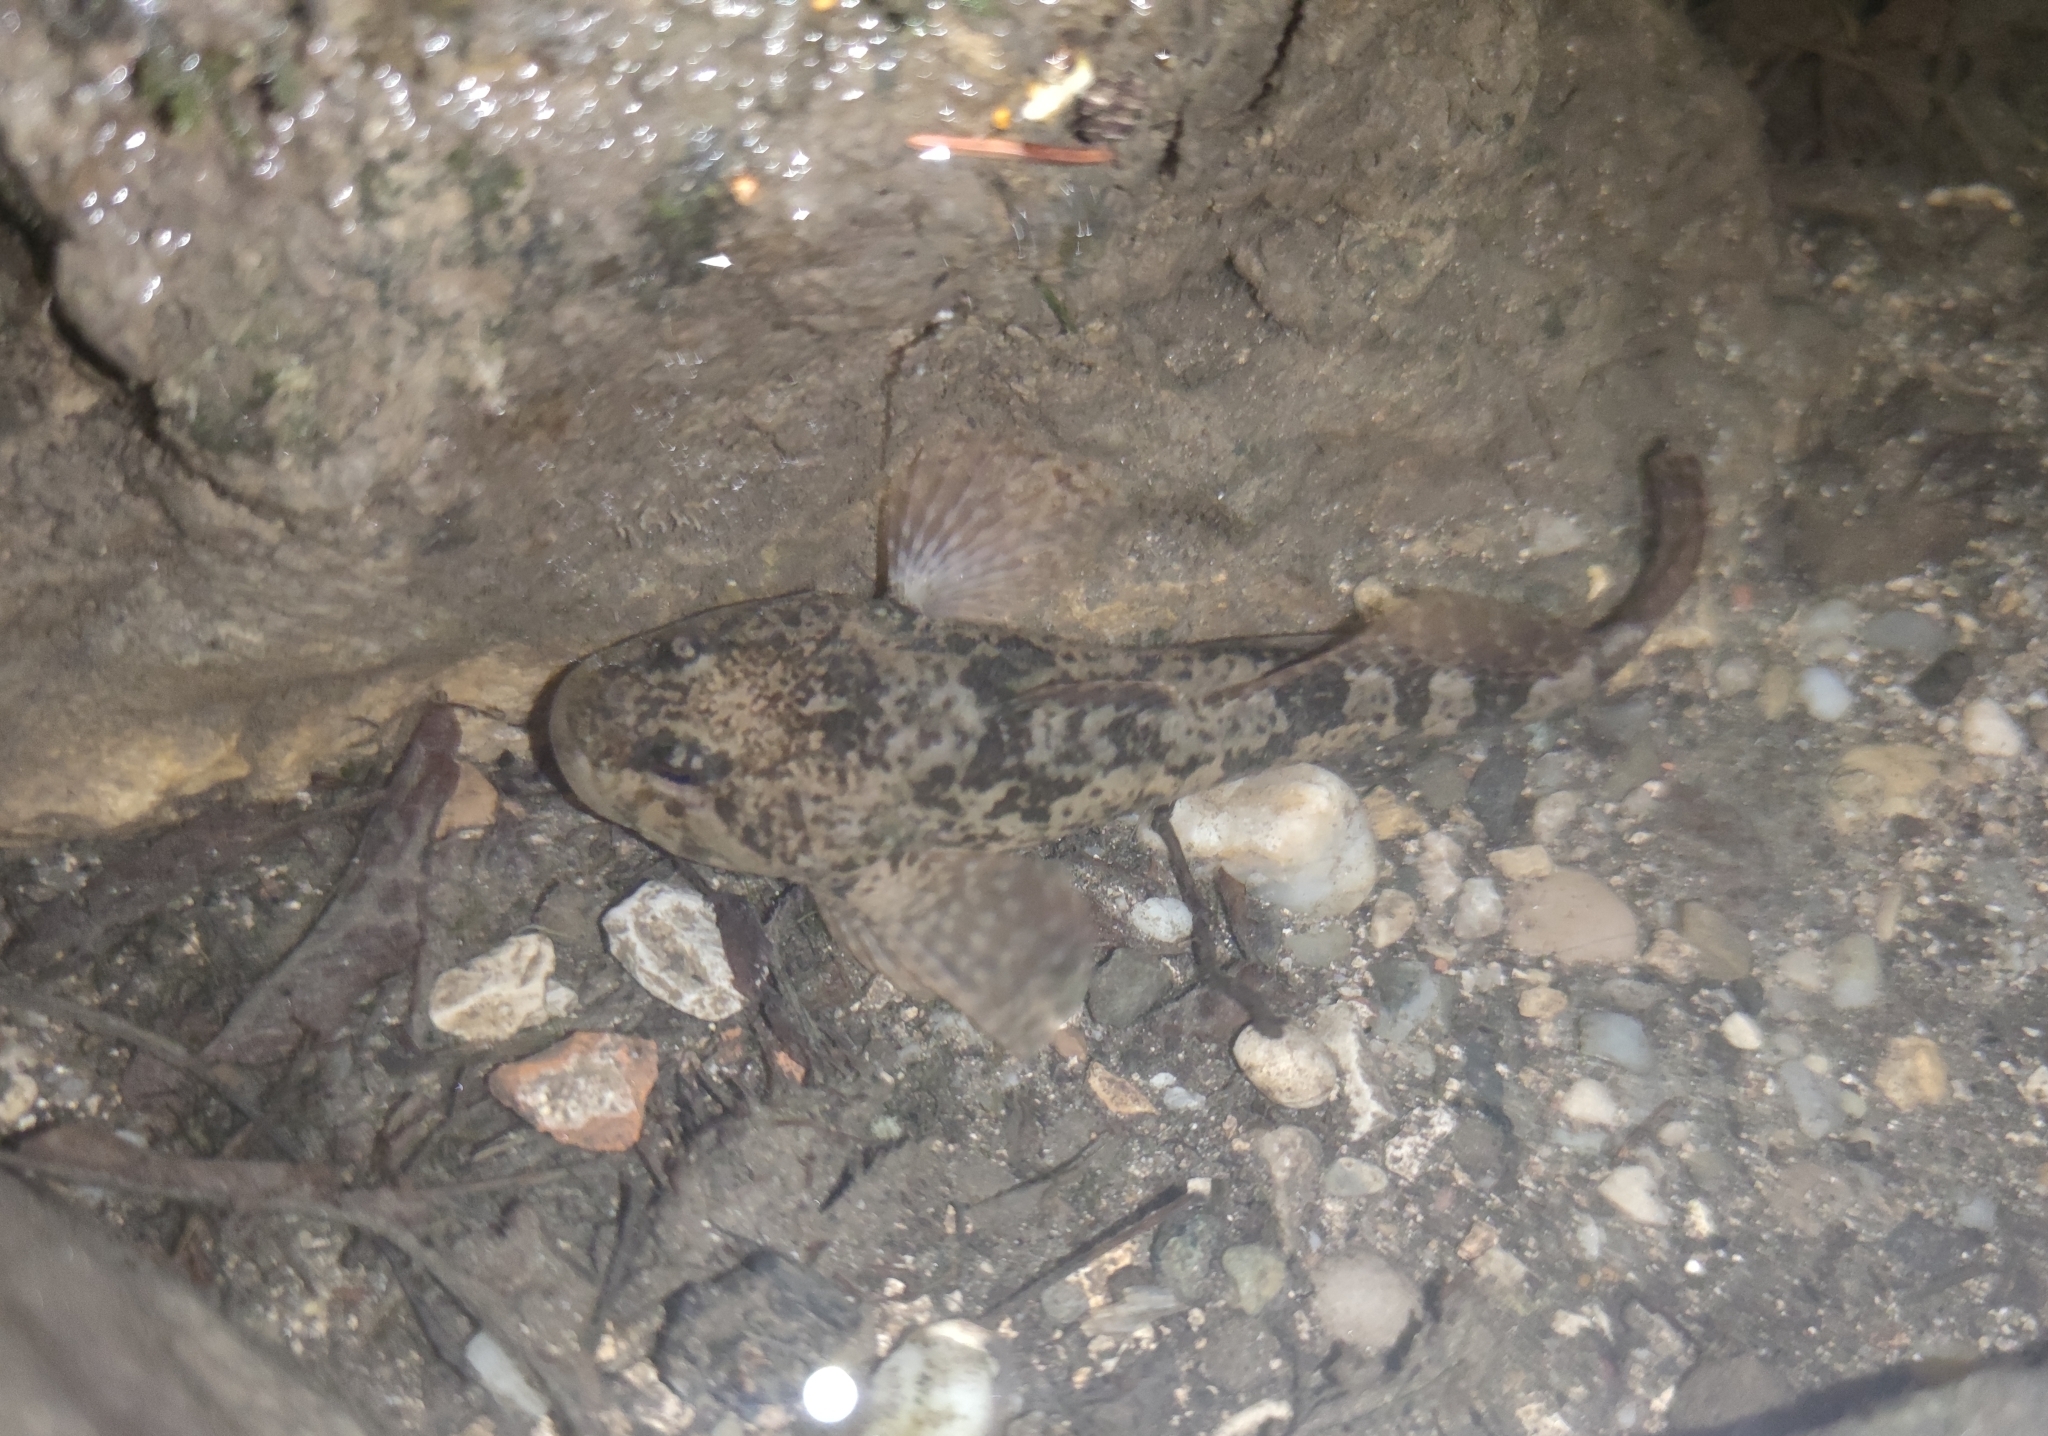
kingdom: Animalia
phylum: Chordata
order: Scorpaeniformes
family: Cottidae
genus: Cottus
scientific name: Cottus gobio
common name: Bullhead
